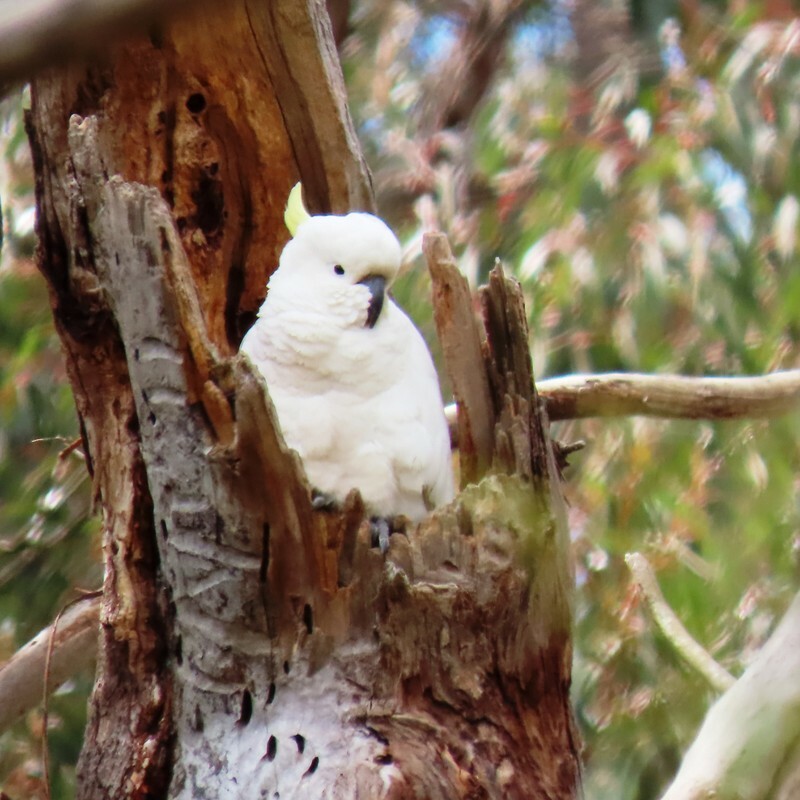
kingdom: Animalia
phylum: Chordata
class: Aves
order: Psittaciformes
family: Psittacidae
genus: Cacatua
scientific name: Cacatua galerita
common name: Sulphur-crested cockatoo
